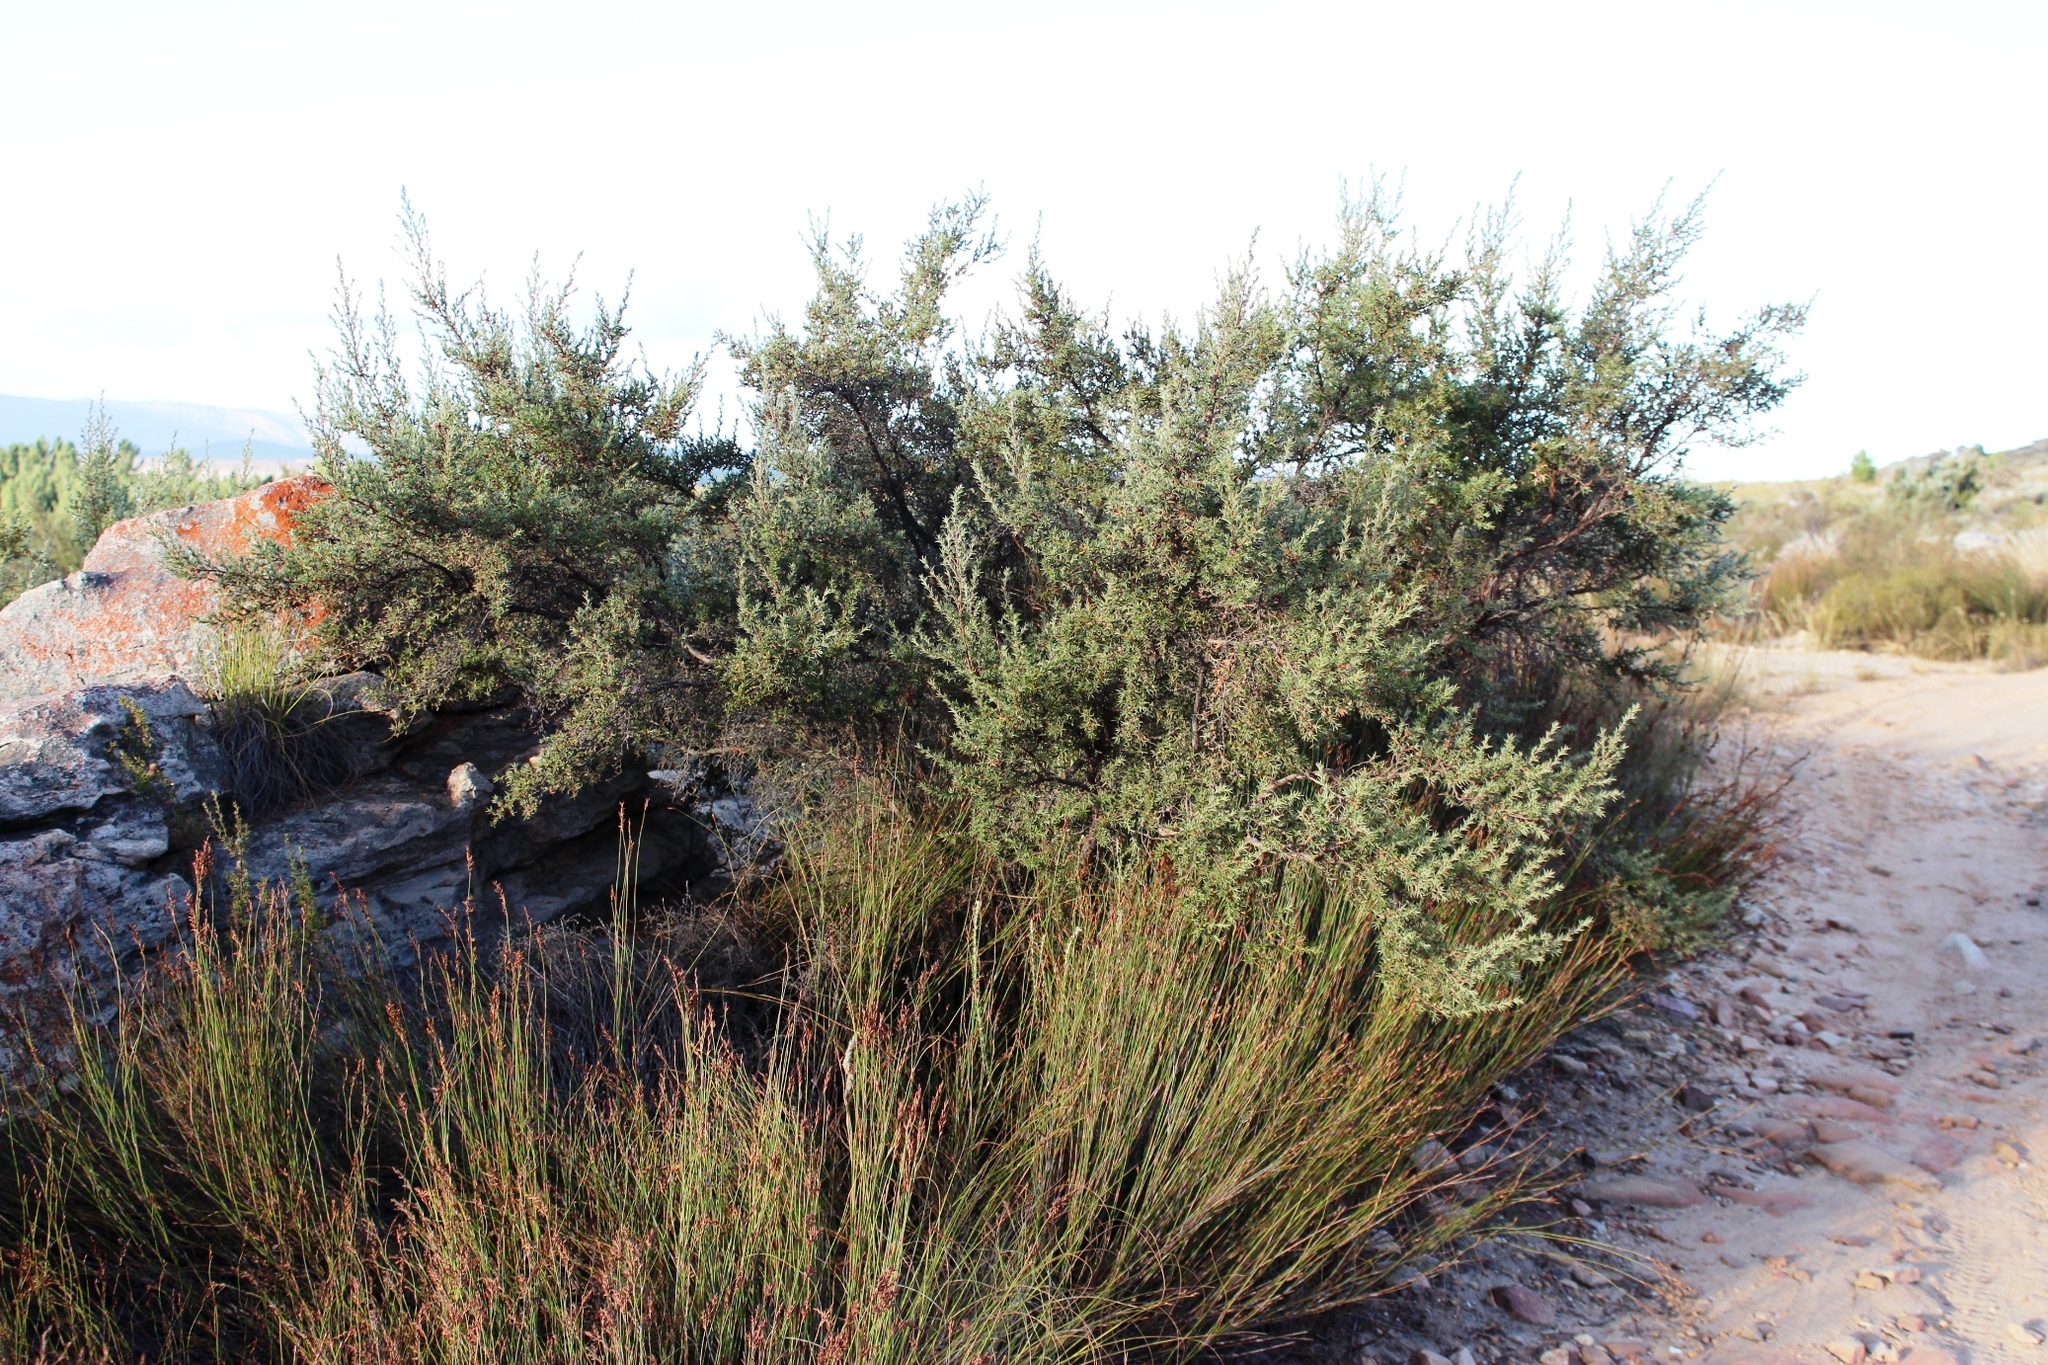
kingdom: Plantae
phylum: Tracheophyta
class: Magnoliopsida
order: Rosales
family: Rosaceae
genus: Cliffortia
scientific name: Cliffortia ruscifolia
